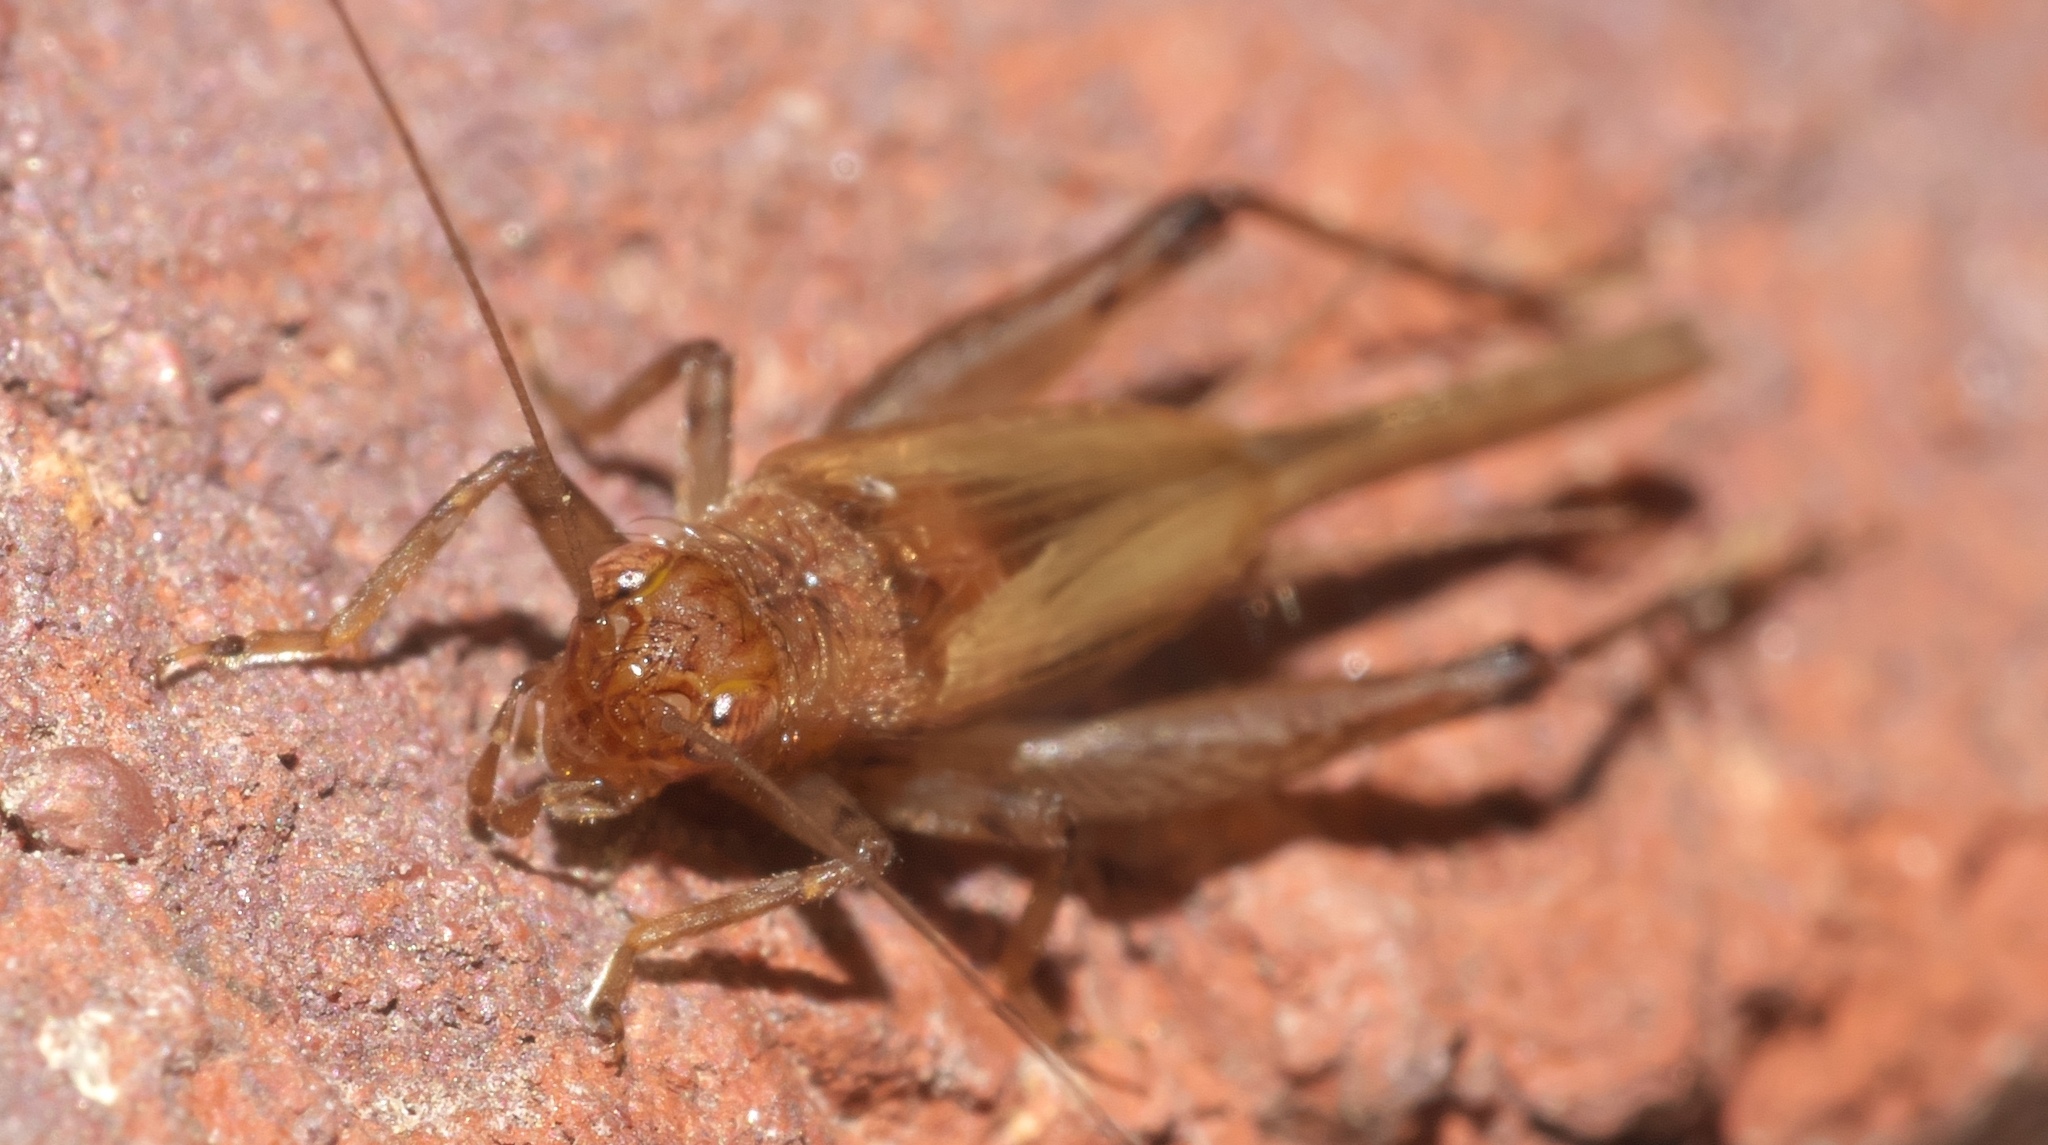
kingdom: Animalia
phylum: Arthropoda
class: Insecta
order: Orthoptera
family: Trigonidiidae
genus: Anaxipha
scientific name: Anaxipha vernalis
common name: Spring trig
